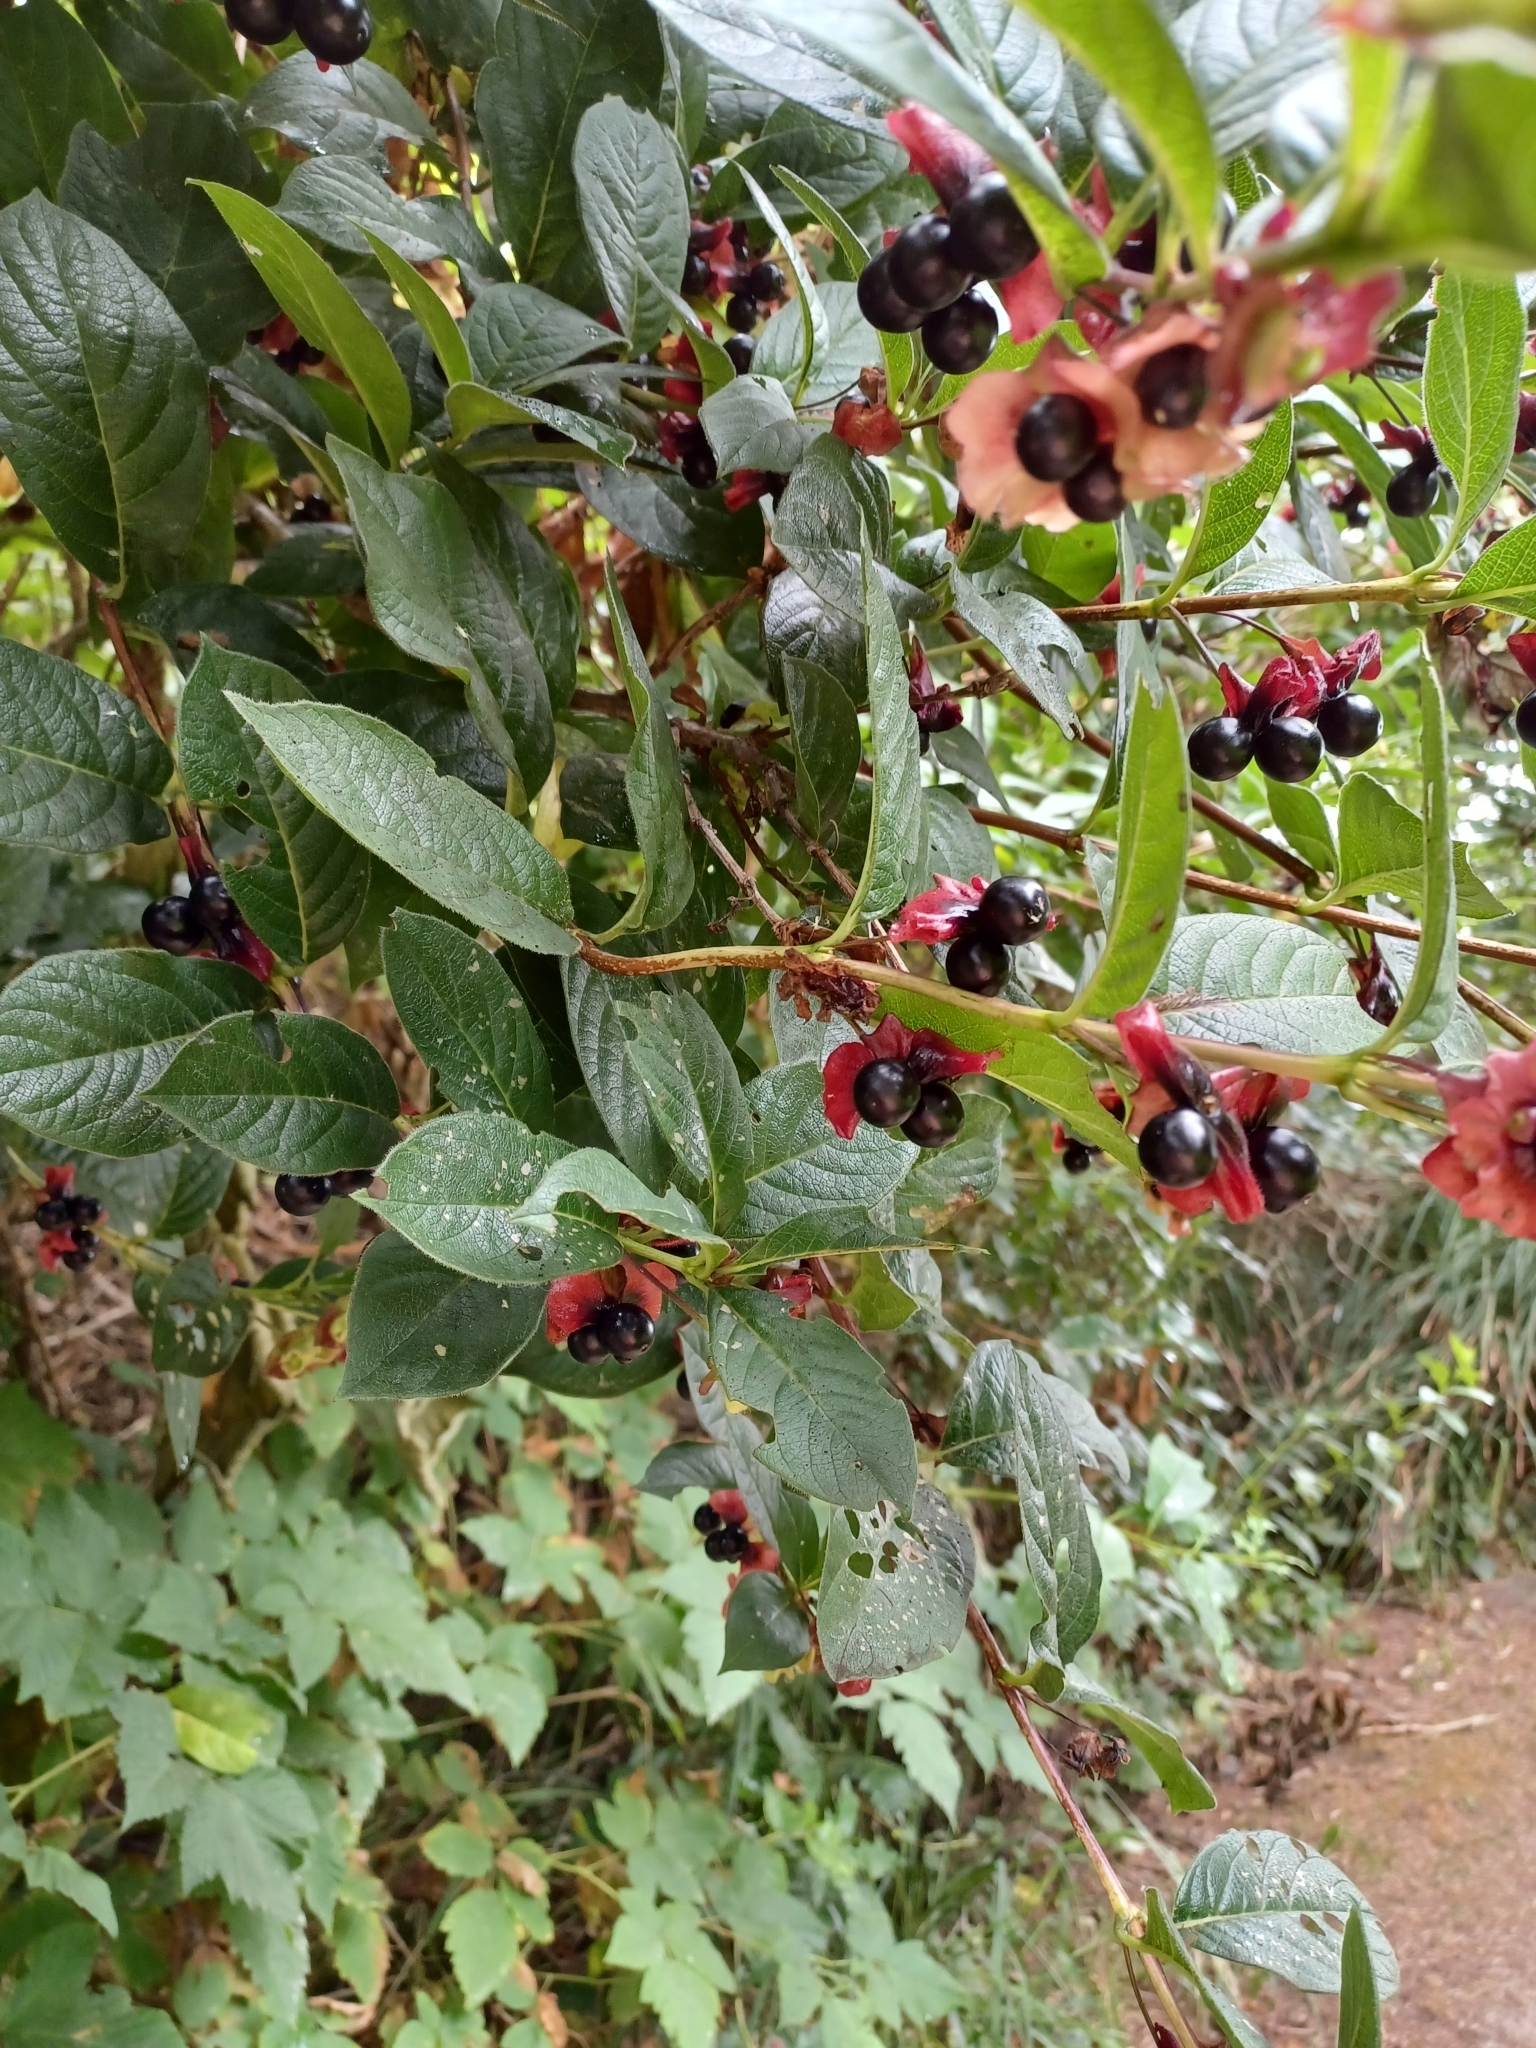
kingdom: Plantae
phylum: Tracheophyta
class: Magnoliopsida
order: Dipsacales
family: Caprifoliaceae
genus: Lonicera
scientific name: Lonicera involucrata
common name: Californian honeysuckle
